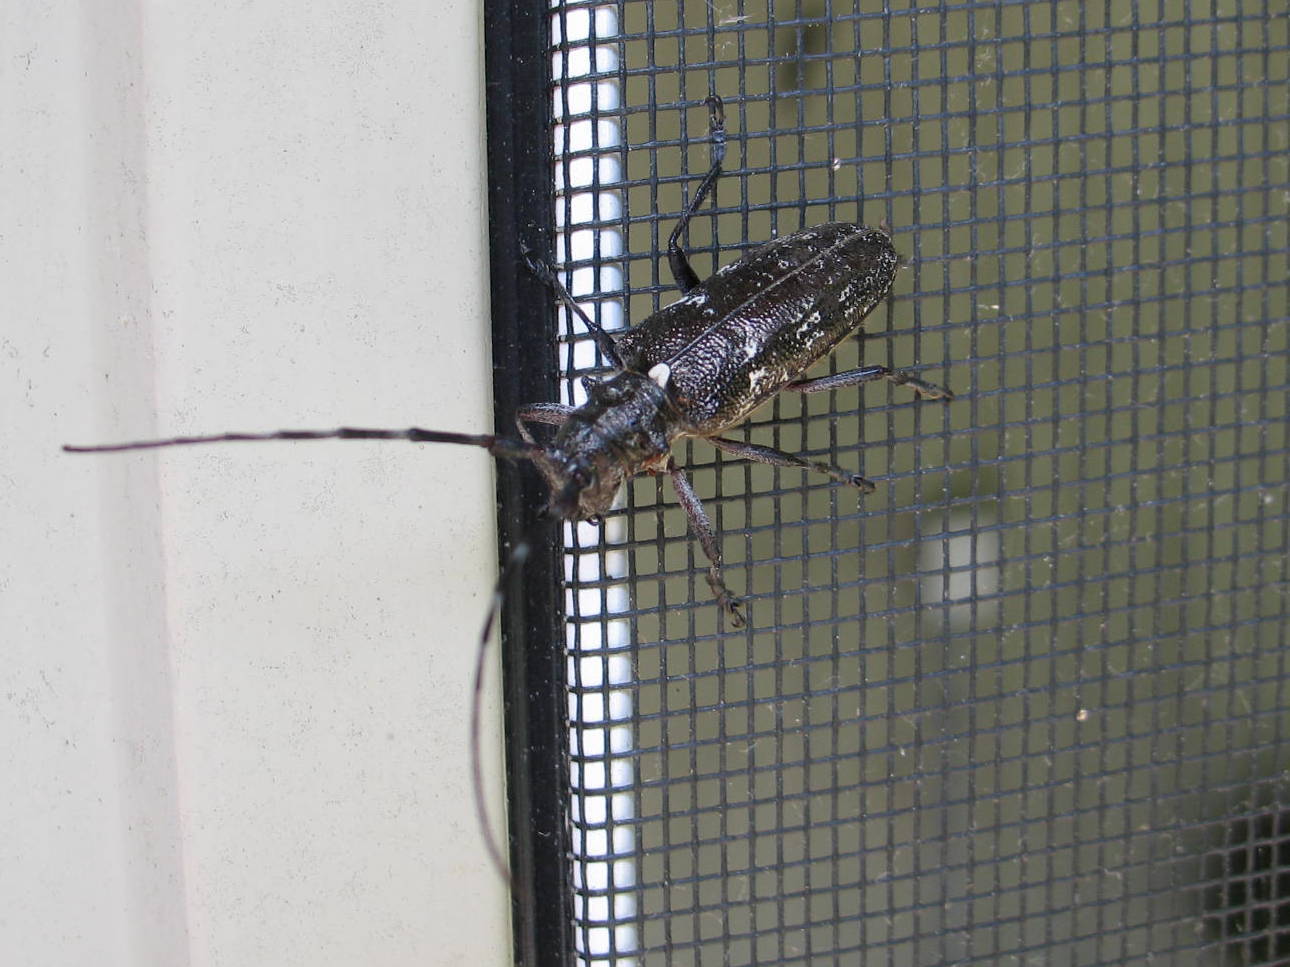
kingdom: Animalia
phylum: Arthropoda
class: Insecta
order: Coleoptera
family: Cerambycidae
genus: Monochamus
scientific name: Monochamus scutellatus
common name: White-spotted sawyer beetle
